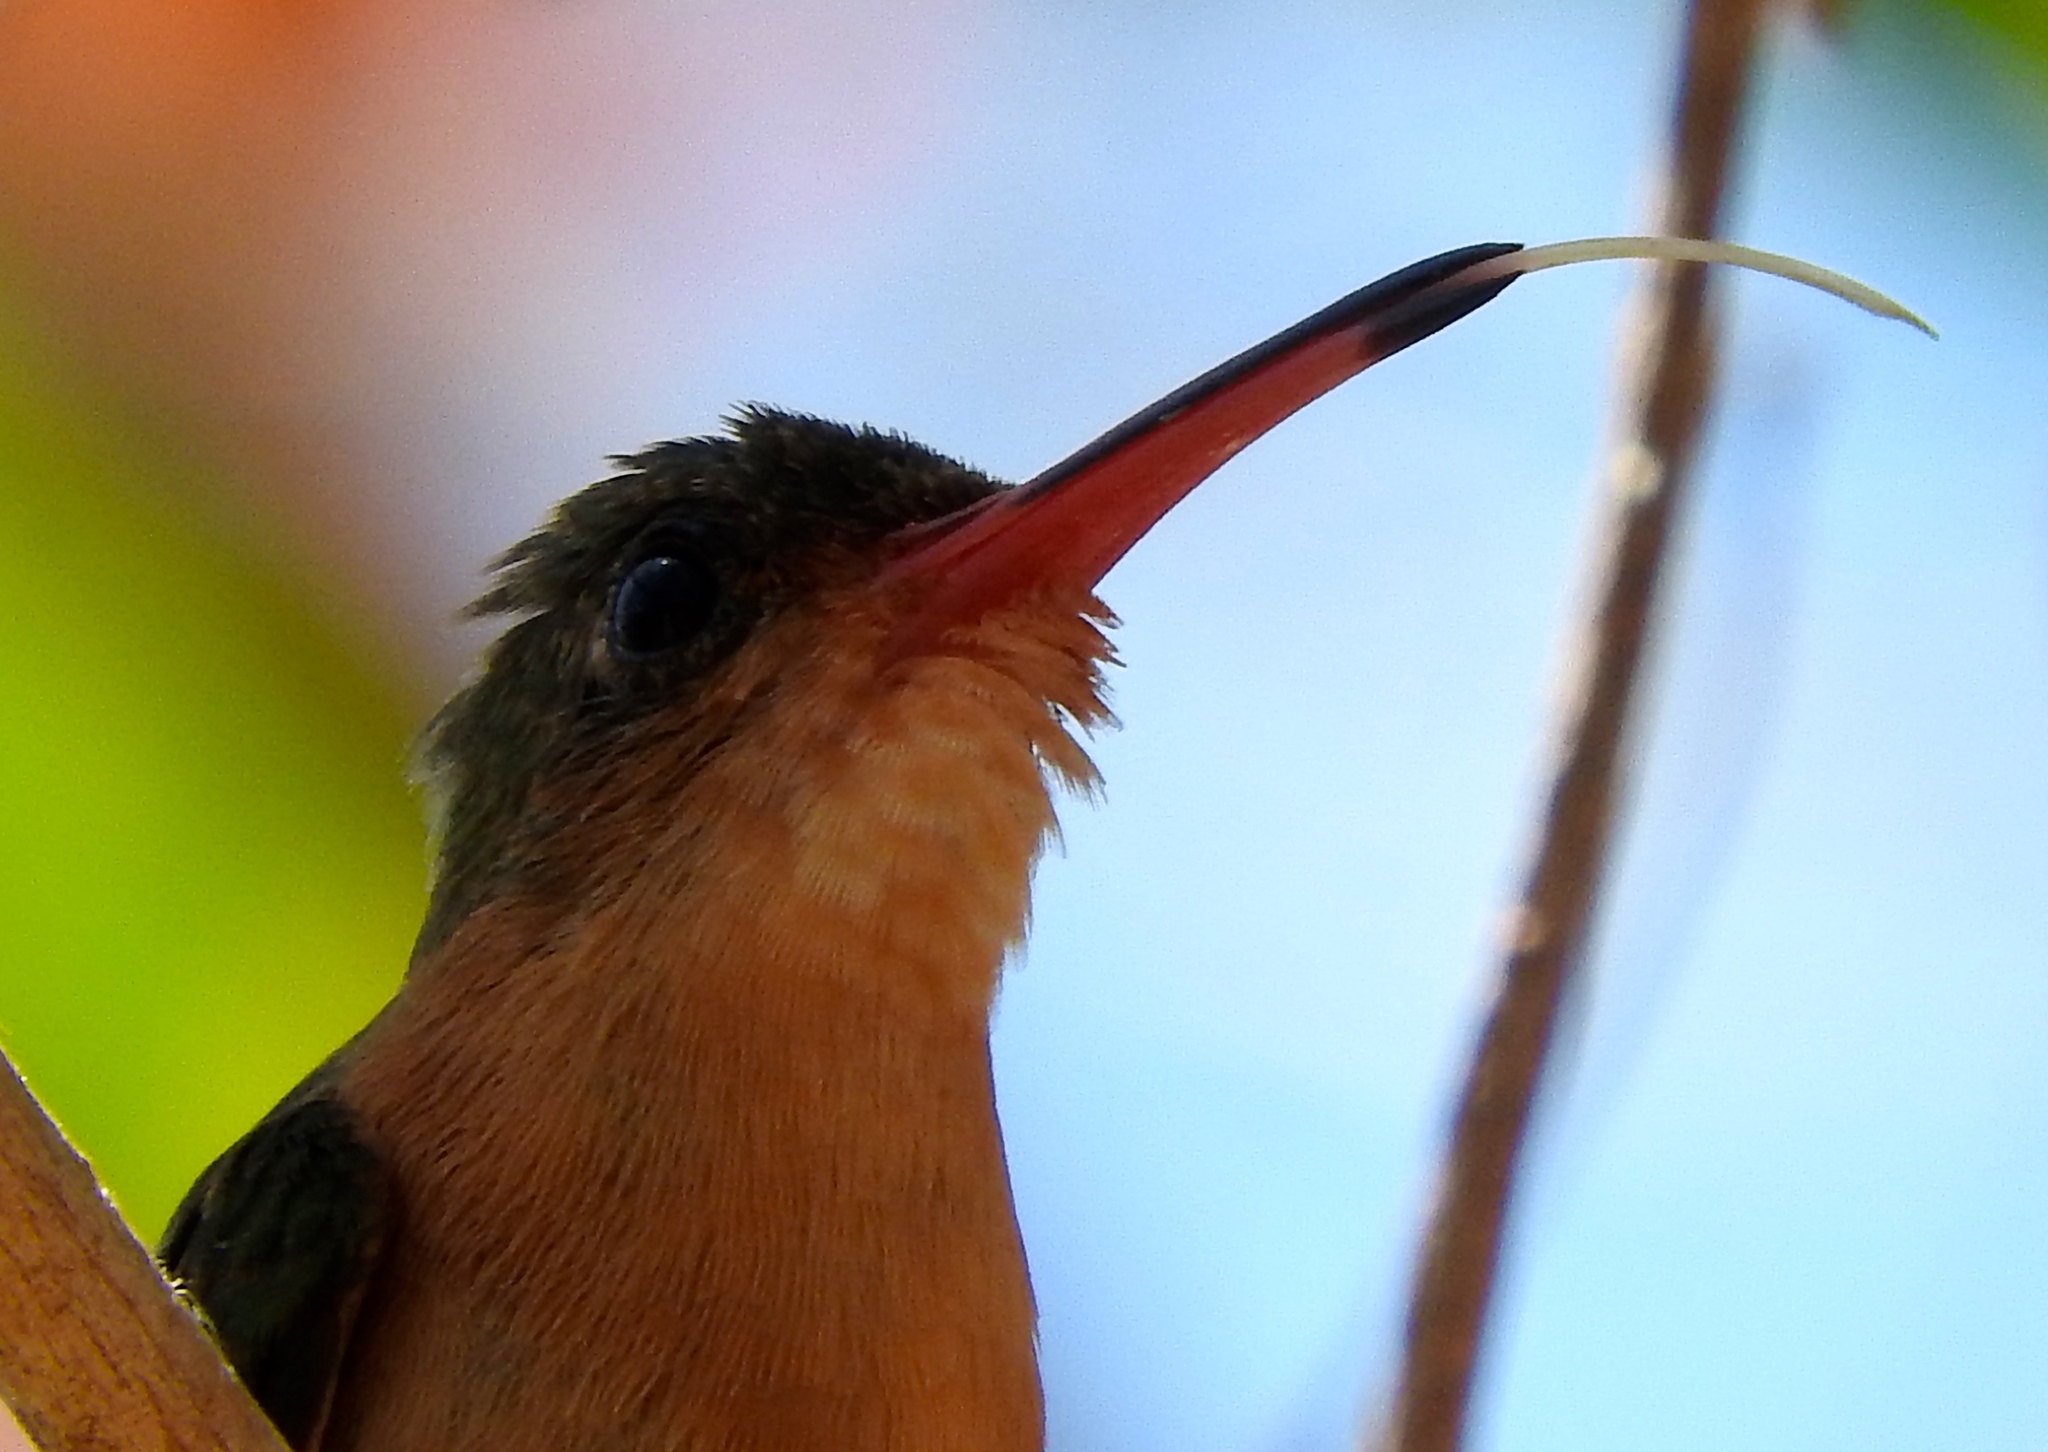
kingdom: Animalia
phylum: Chordata
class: Aves
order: Apodiformes
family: Trochilidae
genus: Amazilia
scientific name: Amazilia rutila
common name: Cinnamon hummingbird
